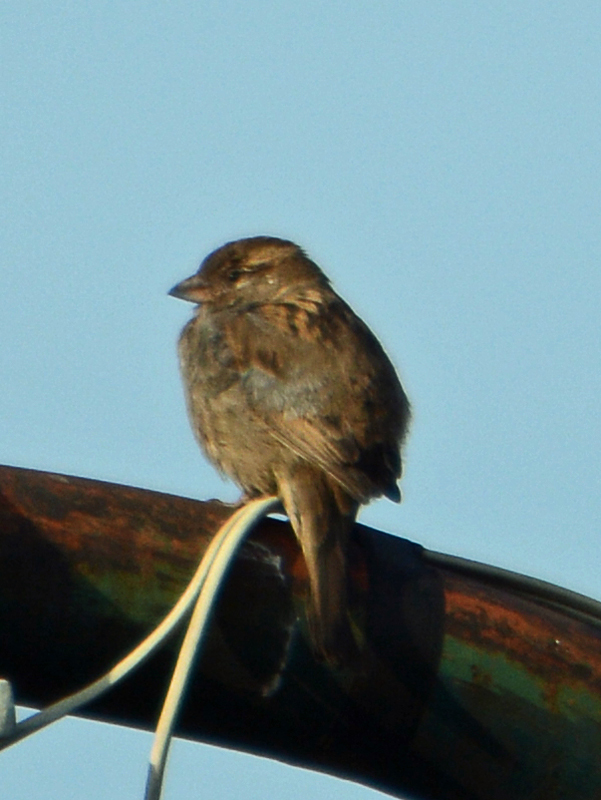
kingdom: Animalia
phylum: Chordata
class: Aves
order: Passeriformes
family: Passeridae
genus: Passer
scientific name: Passer domesticus
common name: House sparrow
